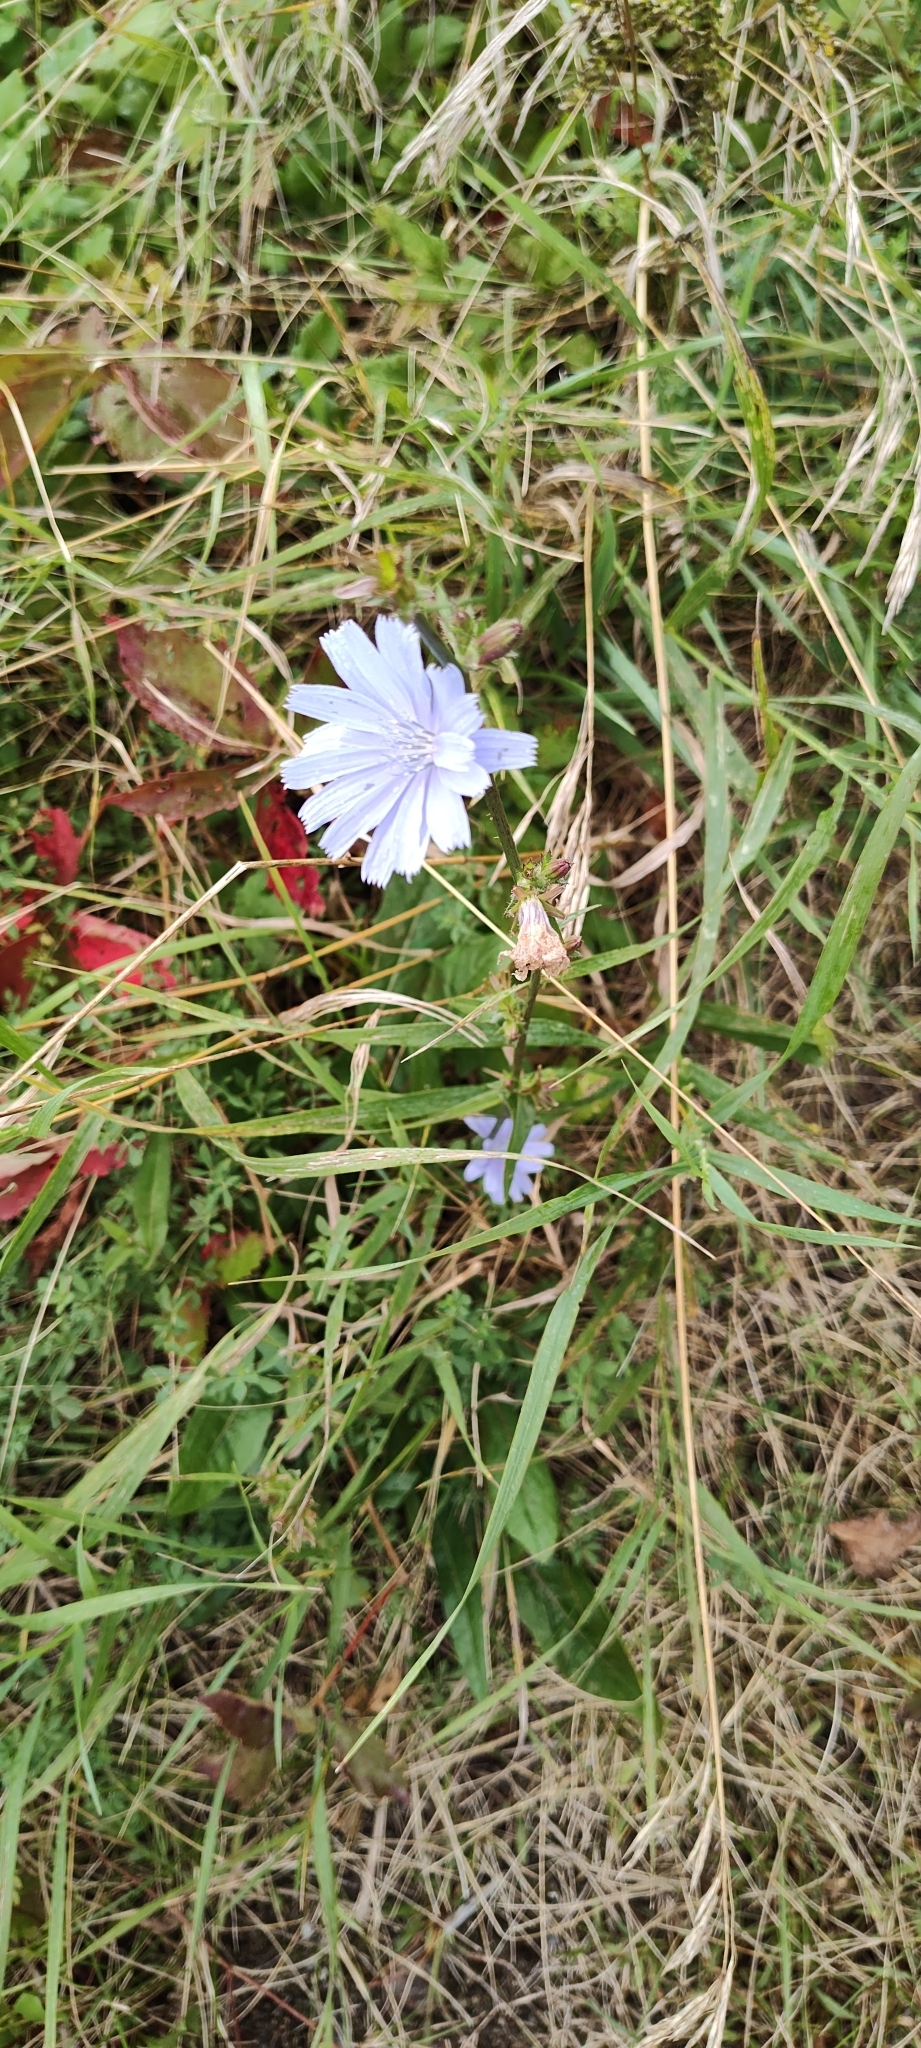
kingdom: Plantae
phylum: Tracheophyta
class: Magnoliopsida
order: Asterales
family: Asteraceae
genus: Cichorium
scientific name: Cichorium intybus
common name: Chicory
